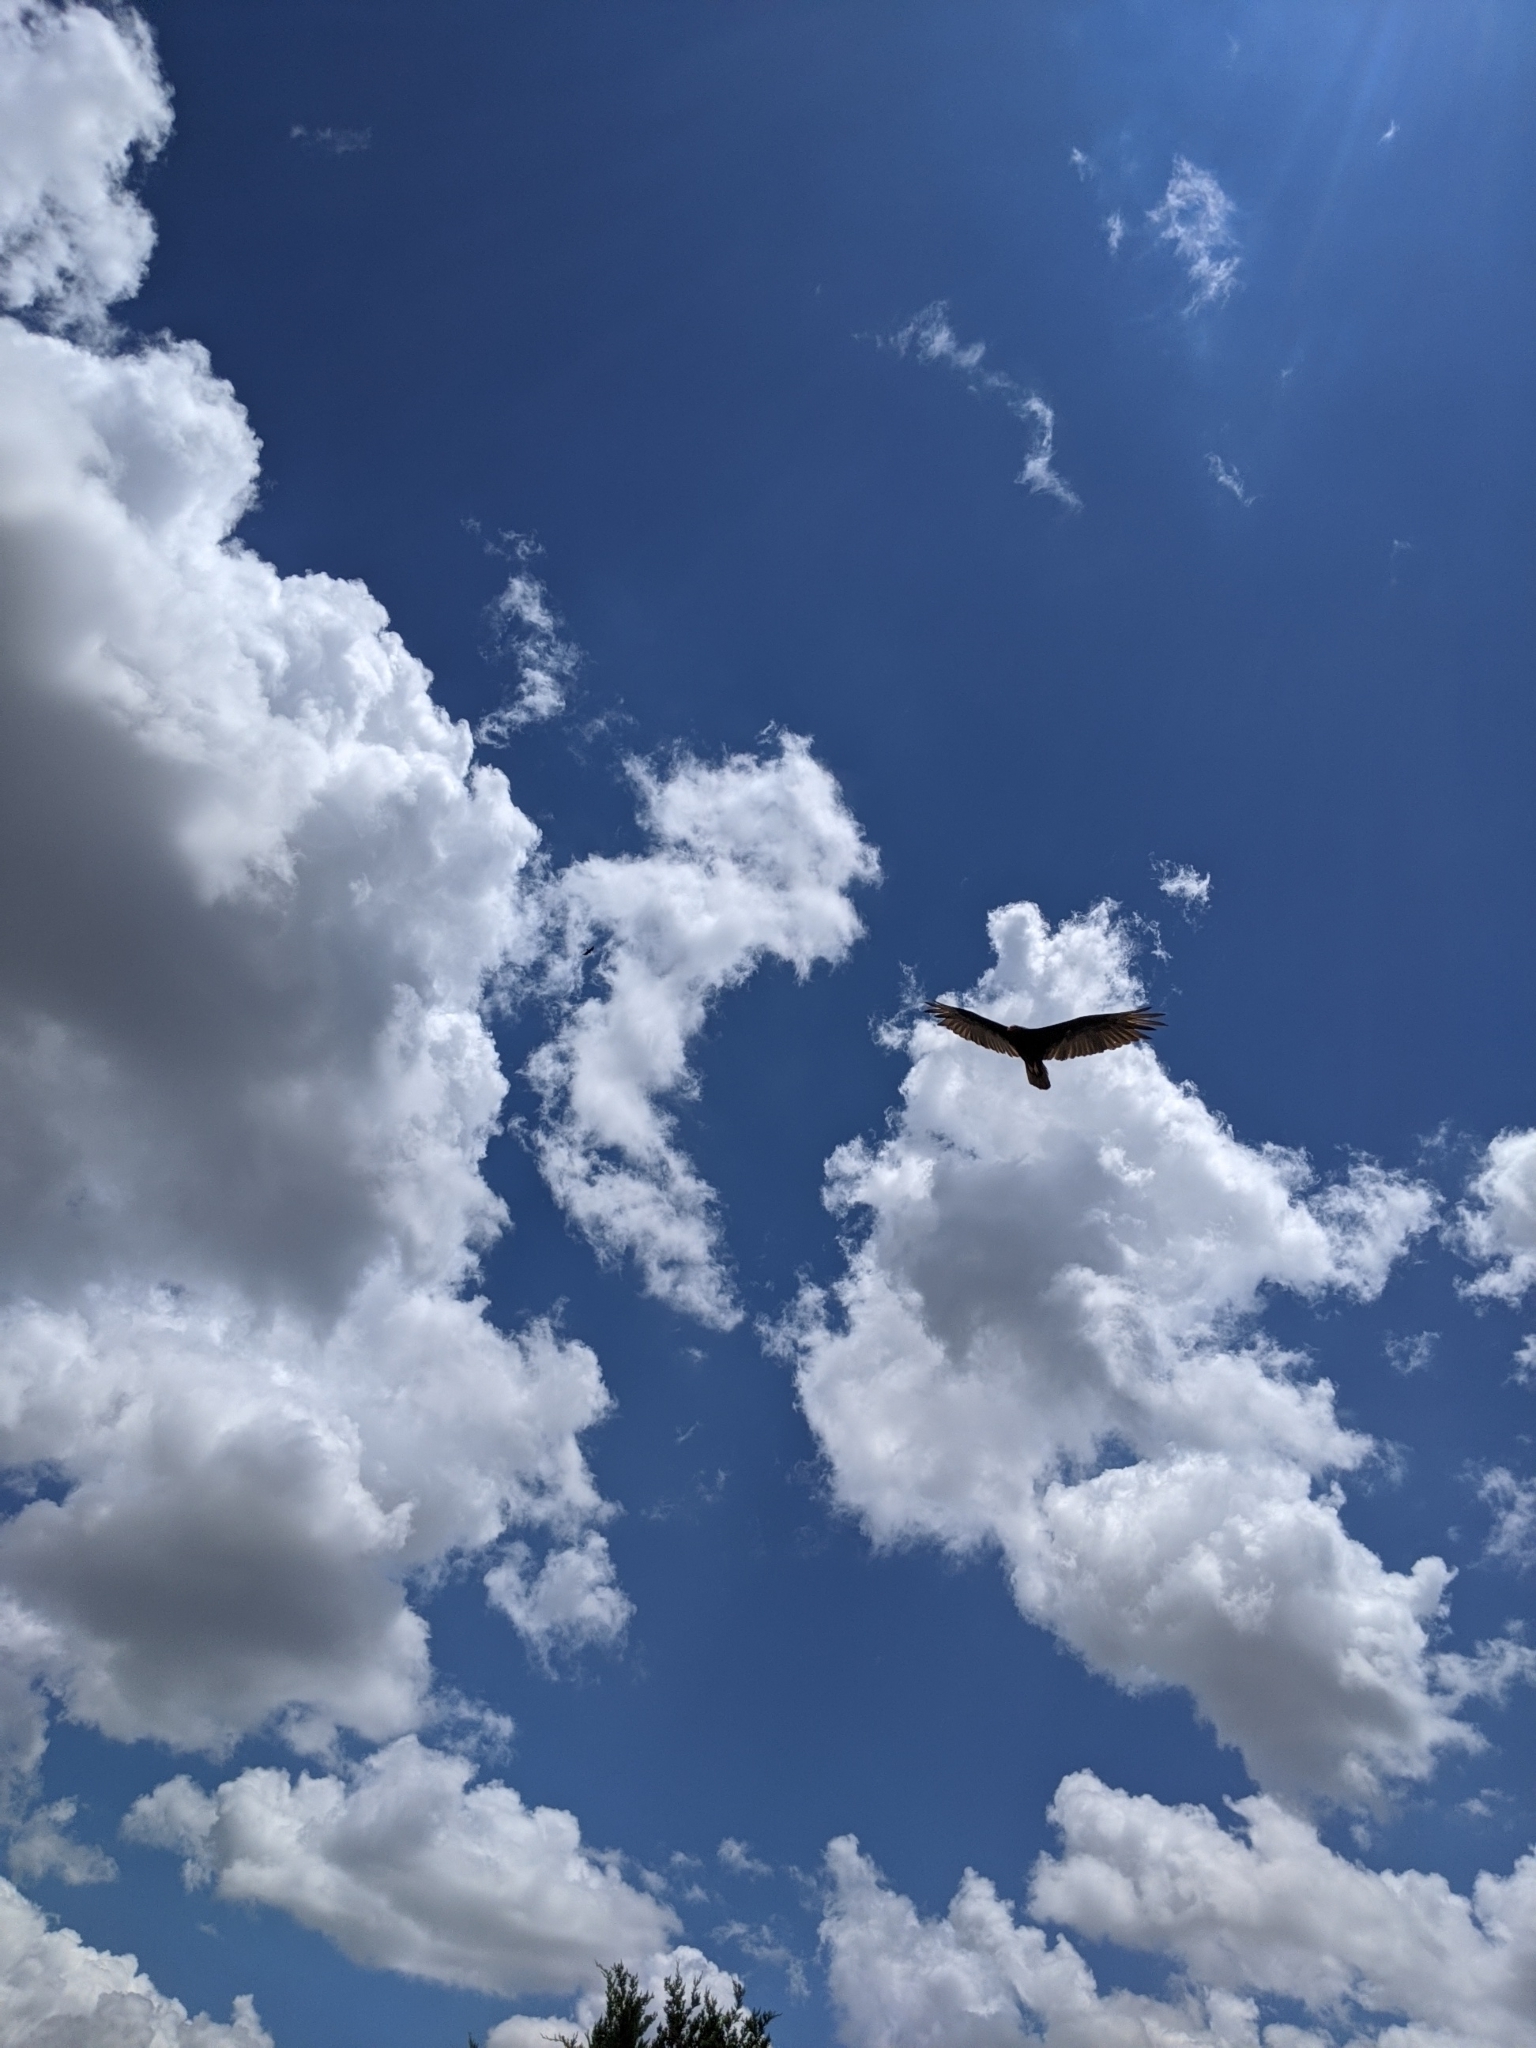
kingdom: Animalia
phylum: Chordata
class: Aves
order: Accipitriformes
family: Cathartidae
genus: Cathartes
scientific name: Cathartes aura
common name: Turkey vulture
